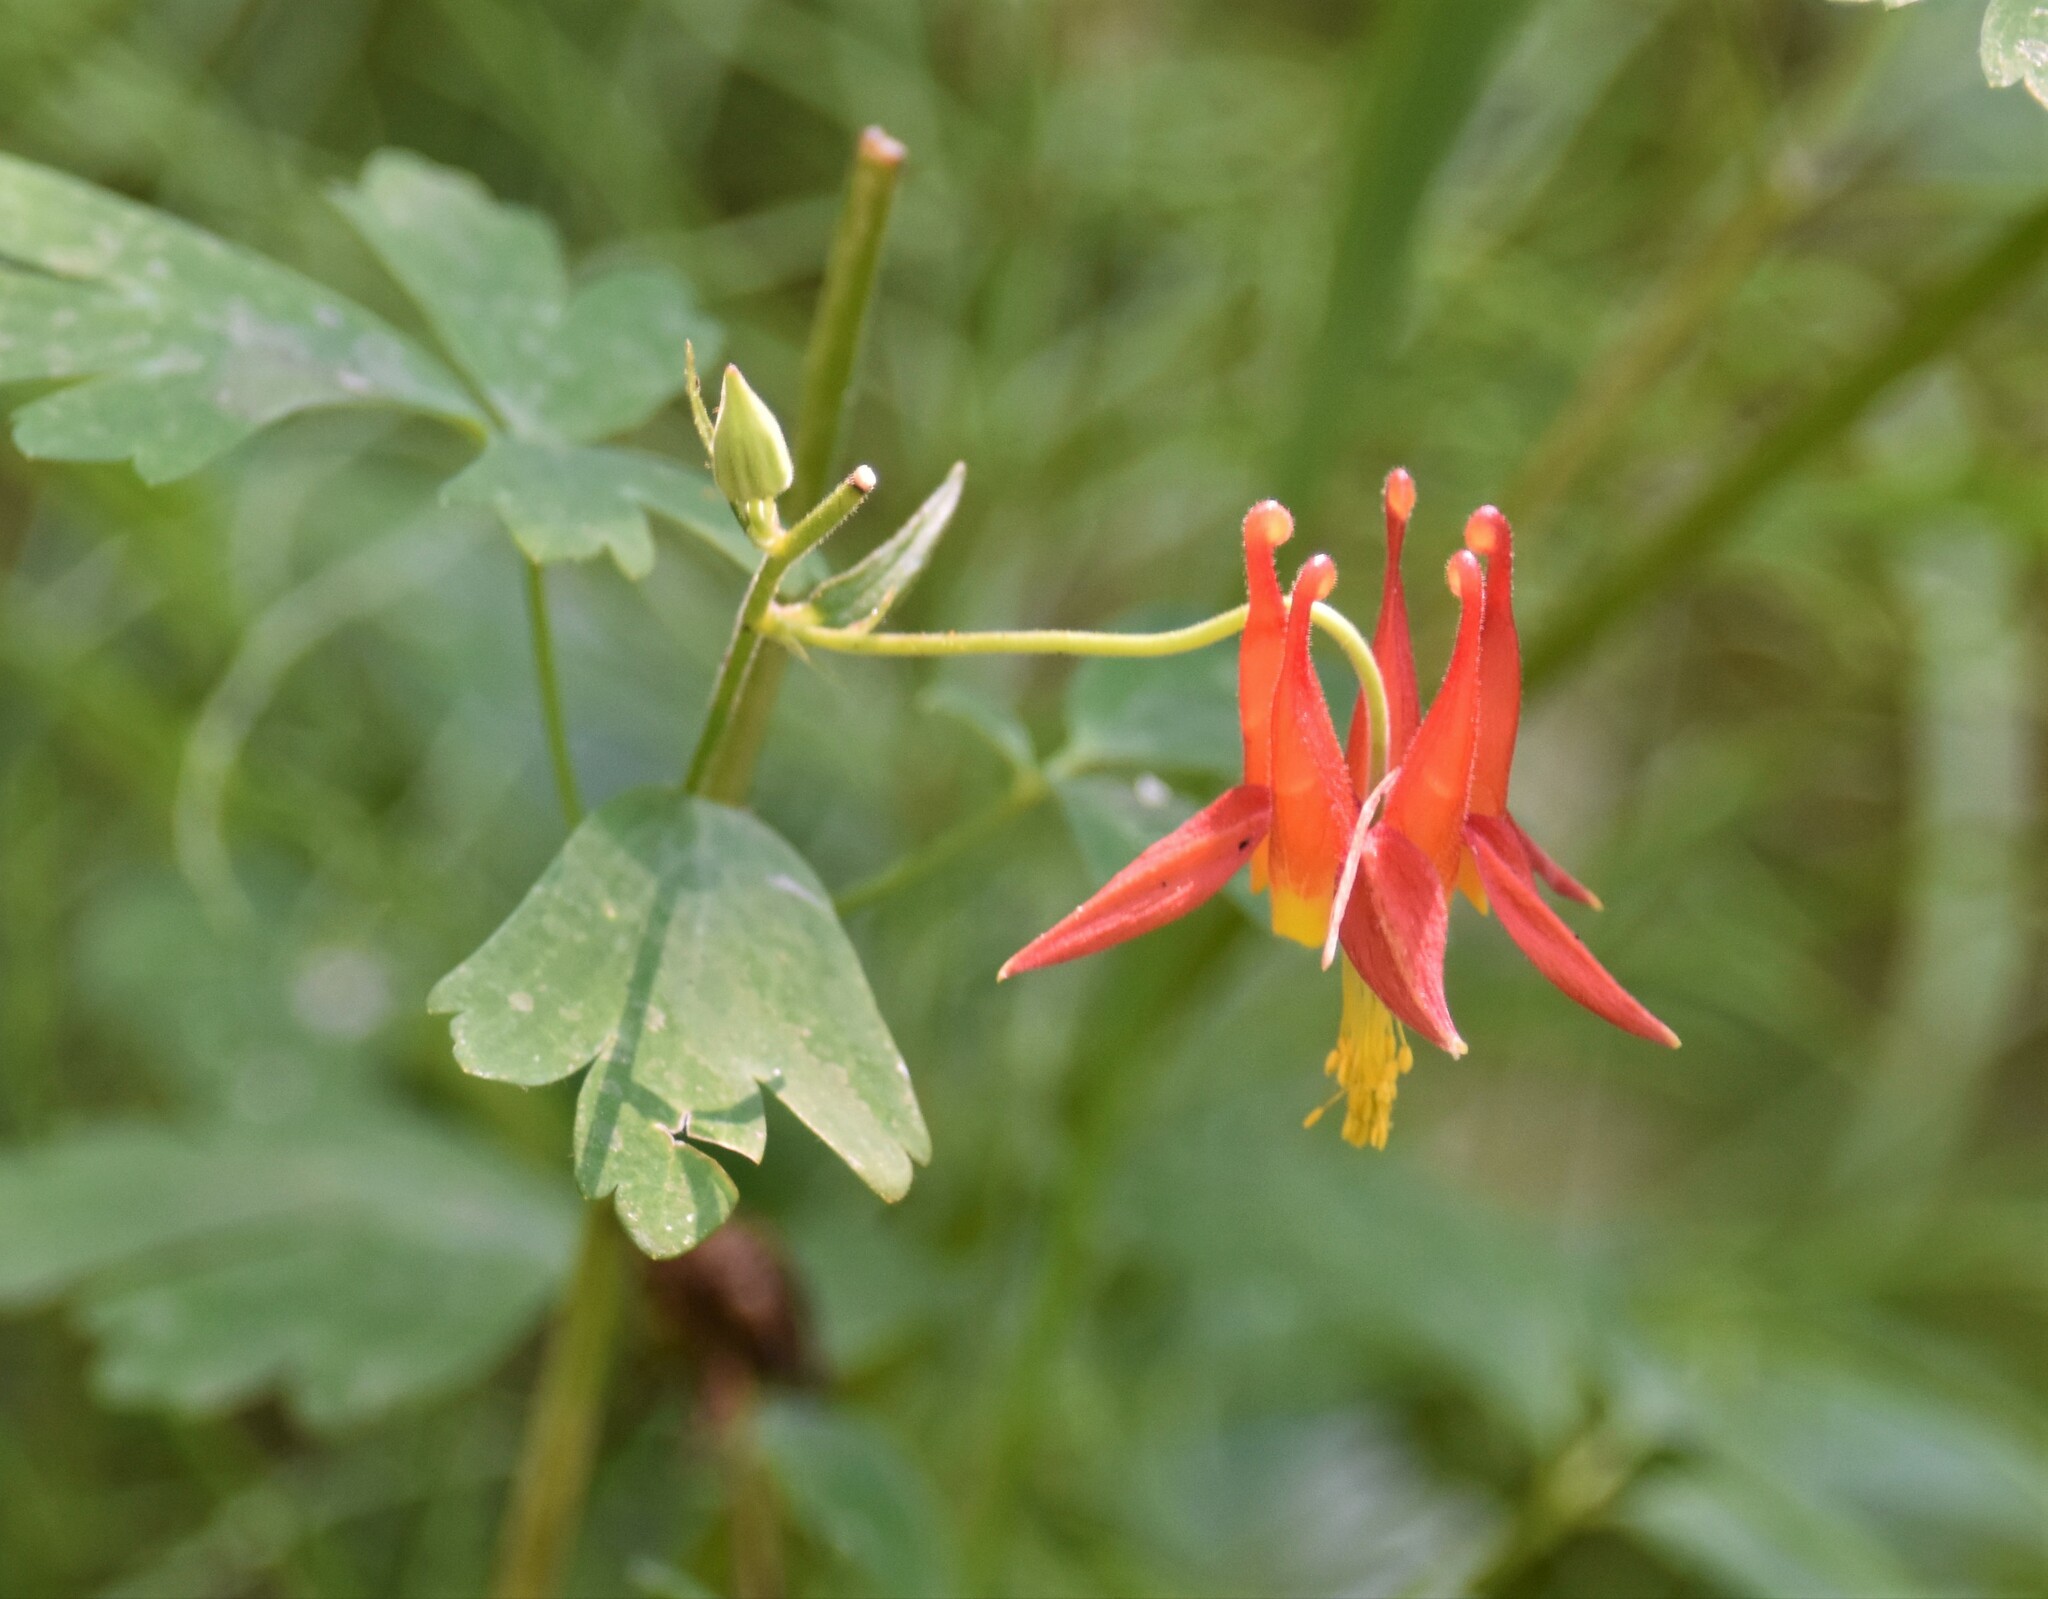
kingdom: Plantae
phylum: Tracheophyta
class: Magnoliopsida
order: Ranunculales
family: Ranunculaceae
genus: Aquilegia
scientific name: Aquilegia formosa
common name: Sitka columbine
